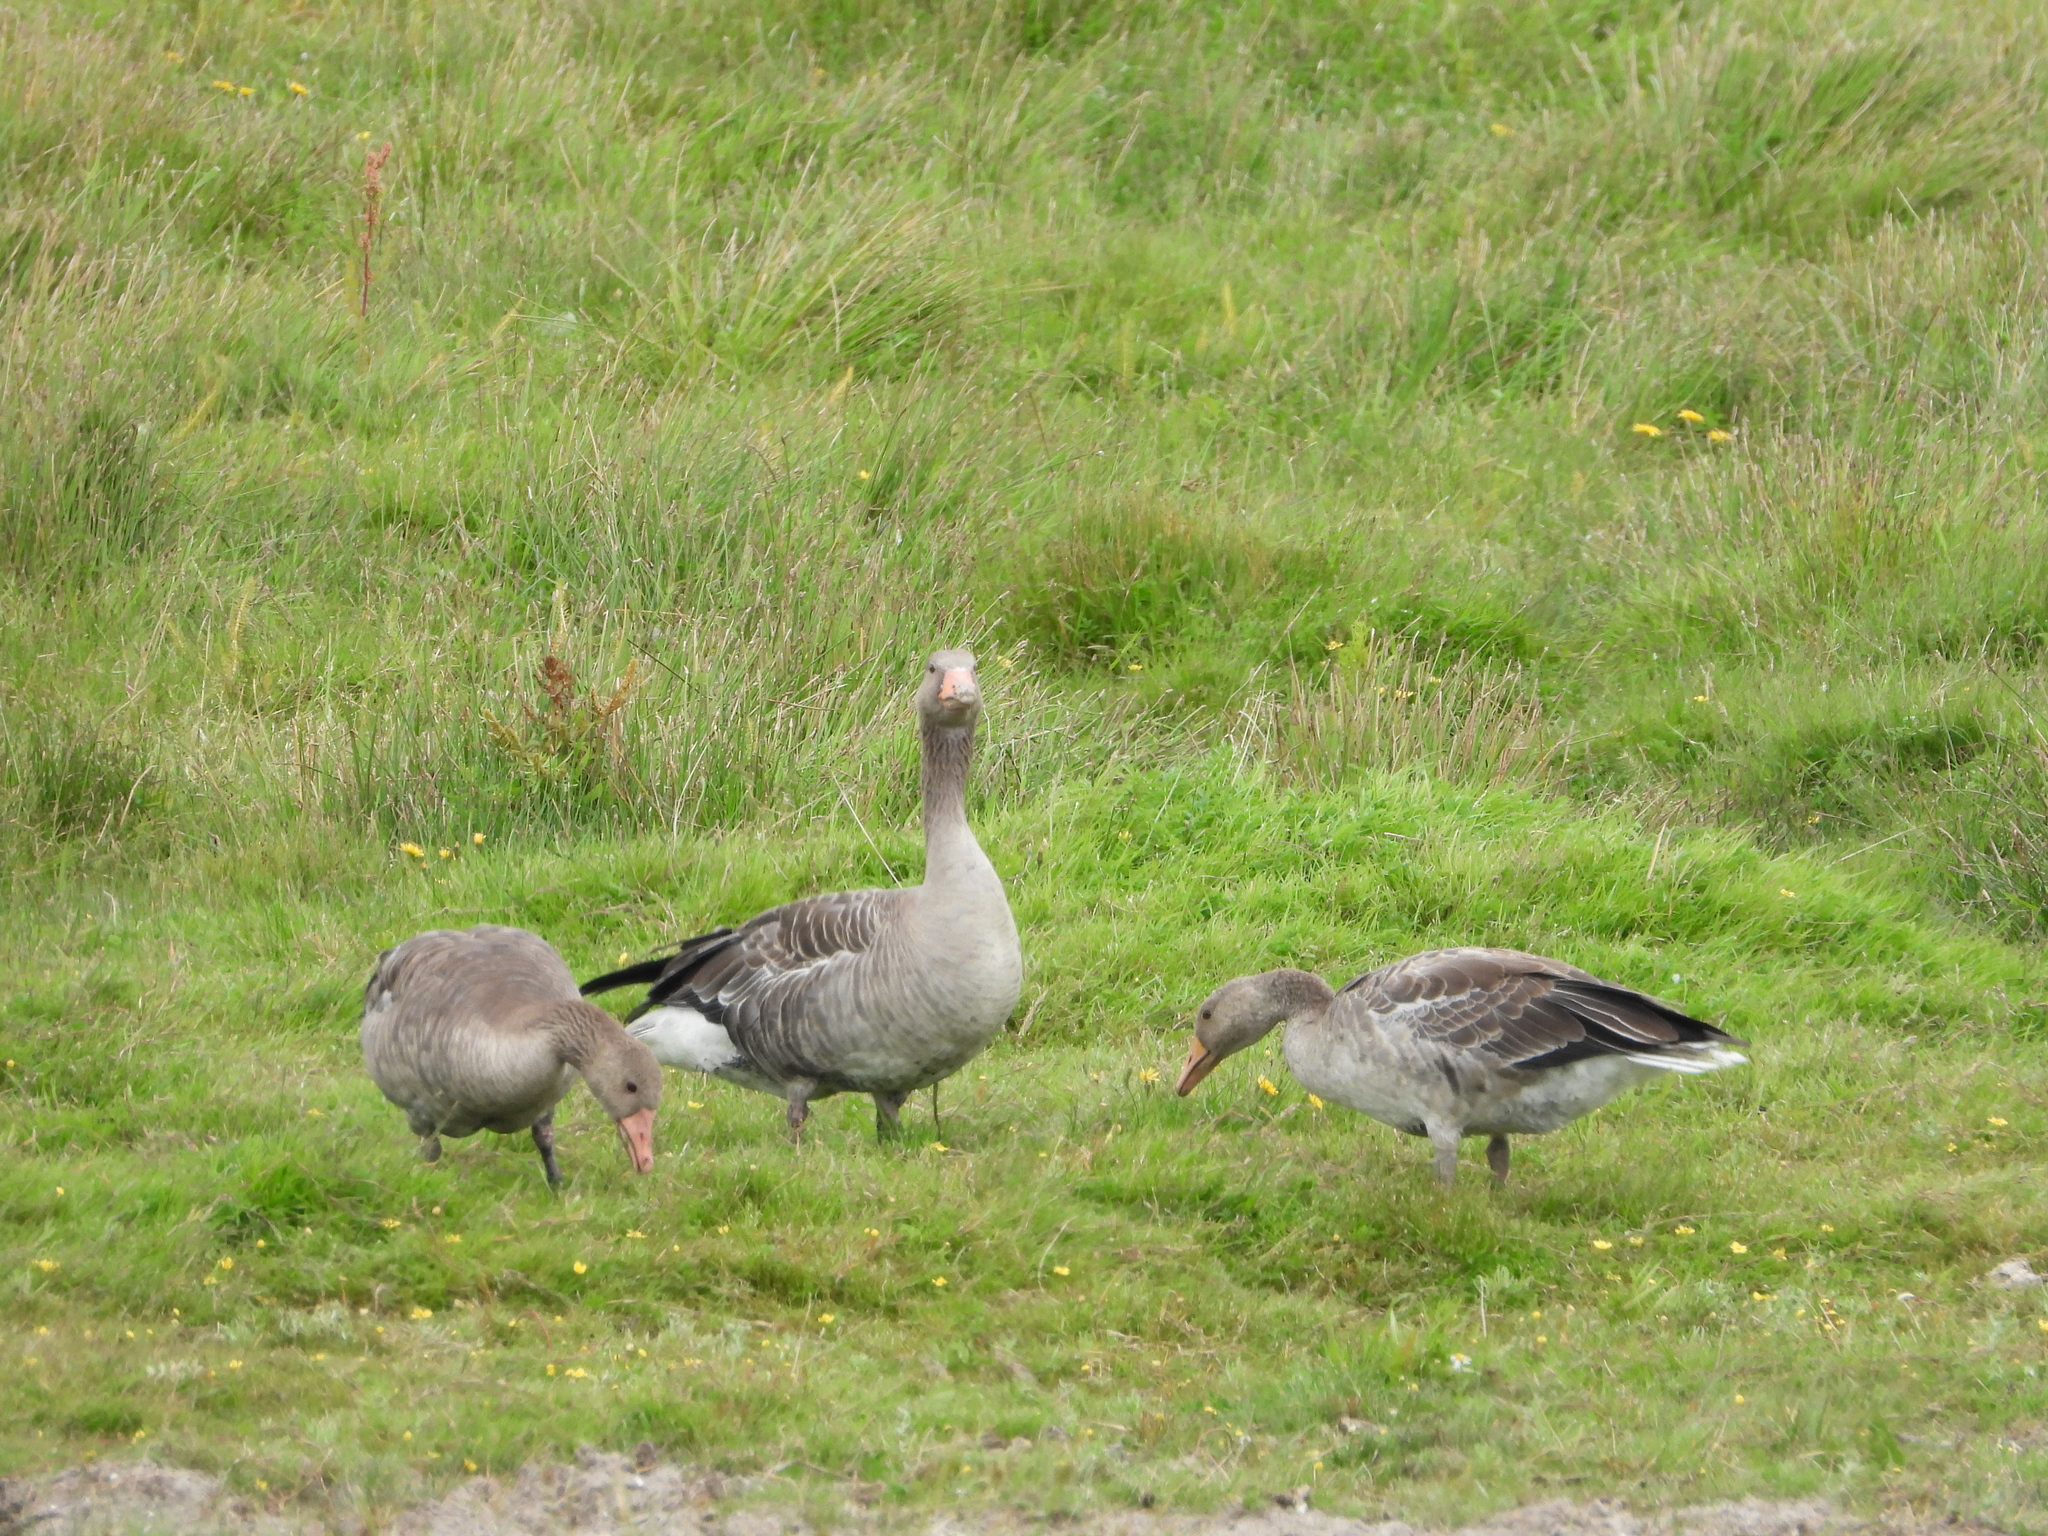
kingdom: Animalia
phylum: Chordata
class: Aves
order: Anseriformes
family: Anatidae
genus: Anser
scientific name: Anser anser
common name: Greylag goose
